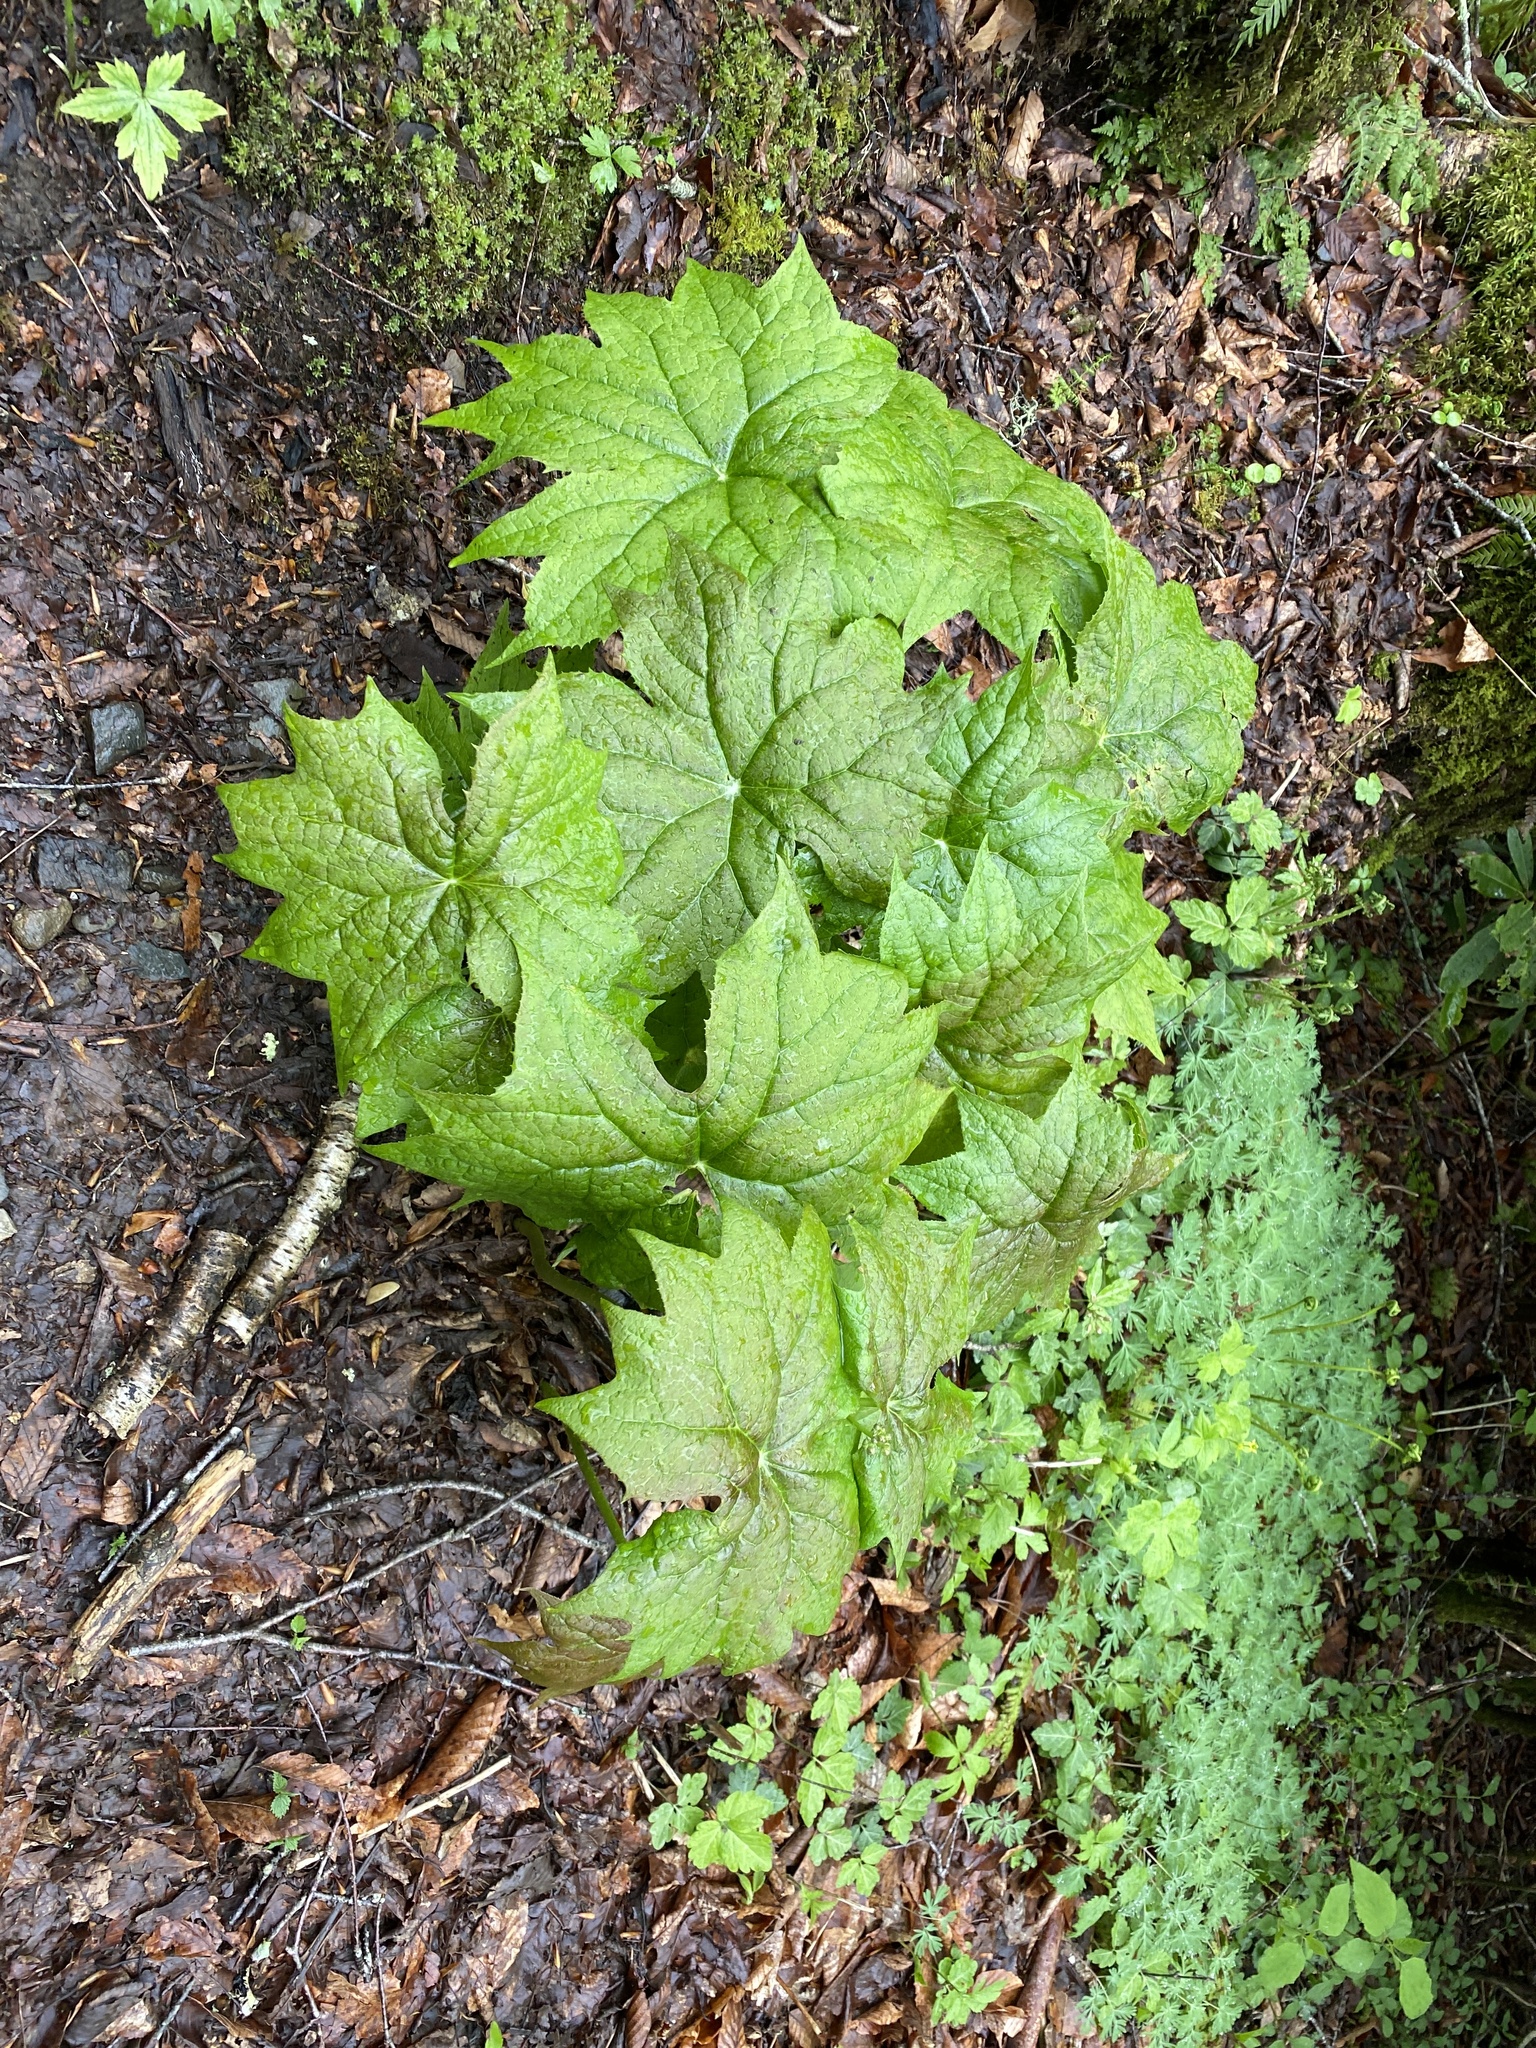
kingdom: Plantae
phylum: Tracheophyta
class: Magnoliopsida
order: Ranunculales
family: Berberidaceae
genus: Diphylleia
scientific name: Diphylleia cymosa
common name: Umbrella-leaf
